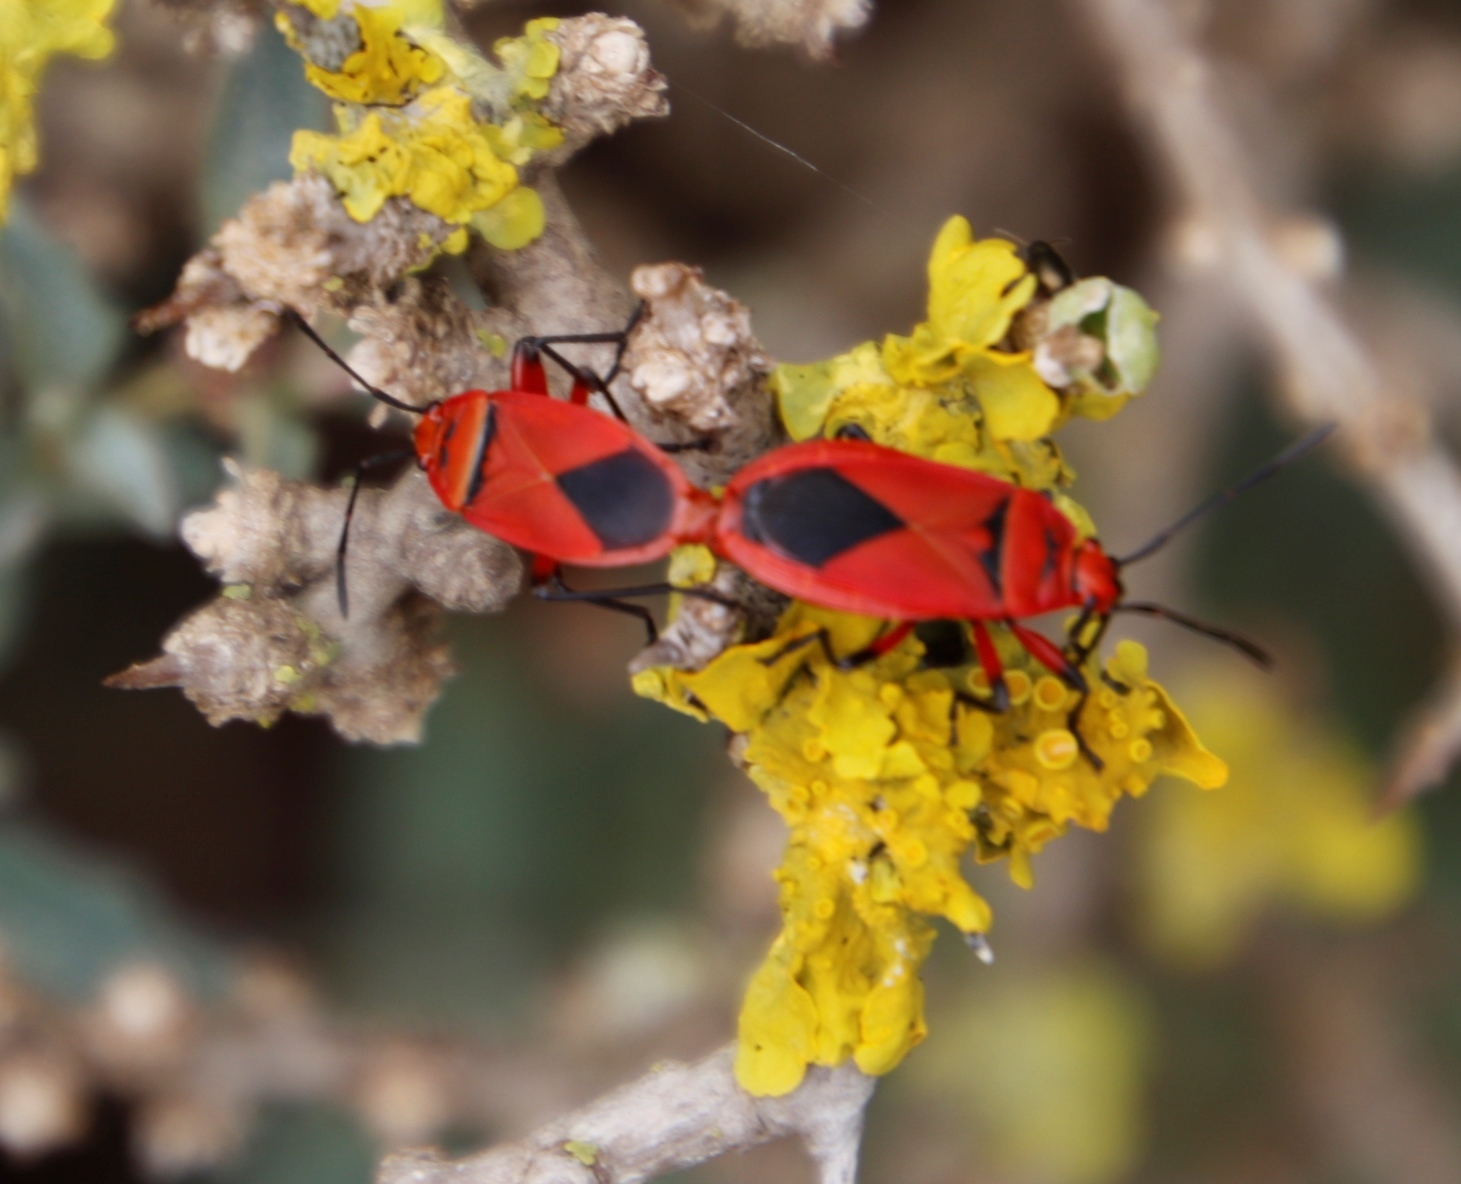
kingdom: Animalia
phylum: Arthropoda
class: Insecta
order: Hemiptera
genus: Cenaeus
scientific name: Cenaeus
